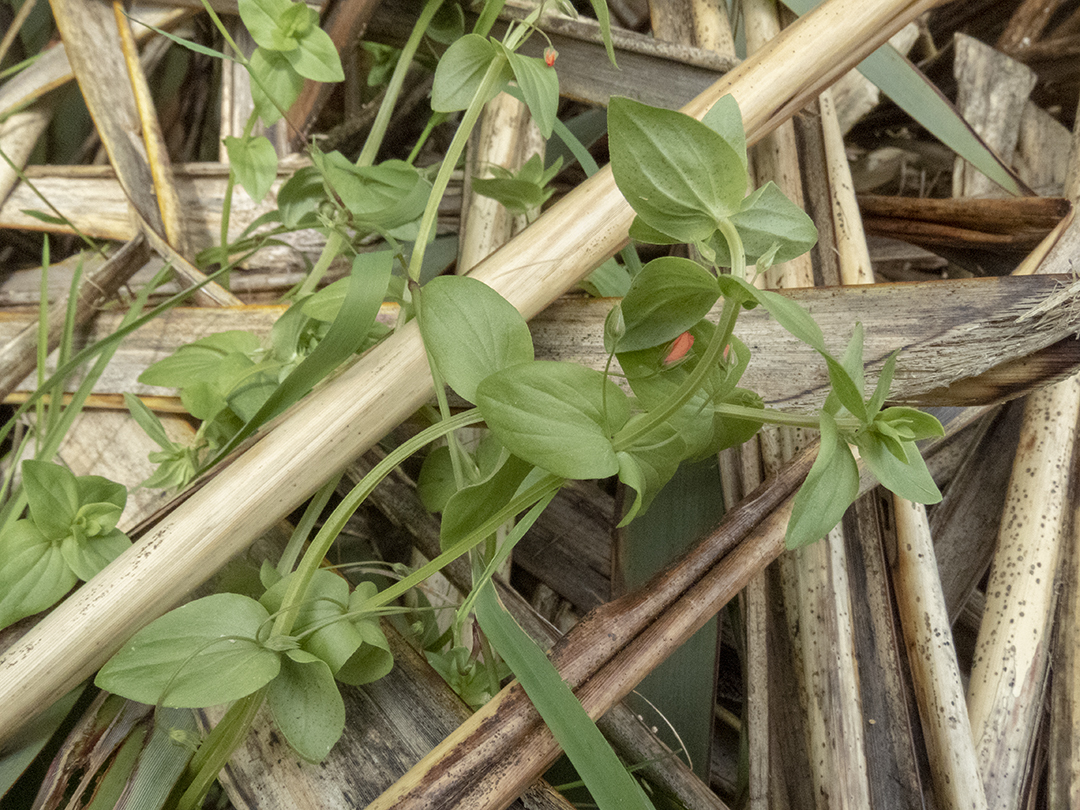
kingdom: Plantae
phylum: Tracheophyta
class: Magnoliopsida
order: Ericales
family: Primulaceae
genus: Lysimachia
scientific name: Lysimachia arvensis
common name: Scarlet pimpernel
